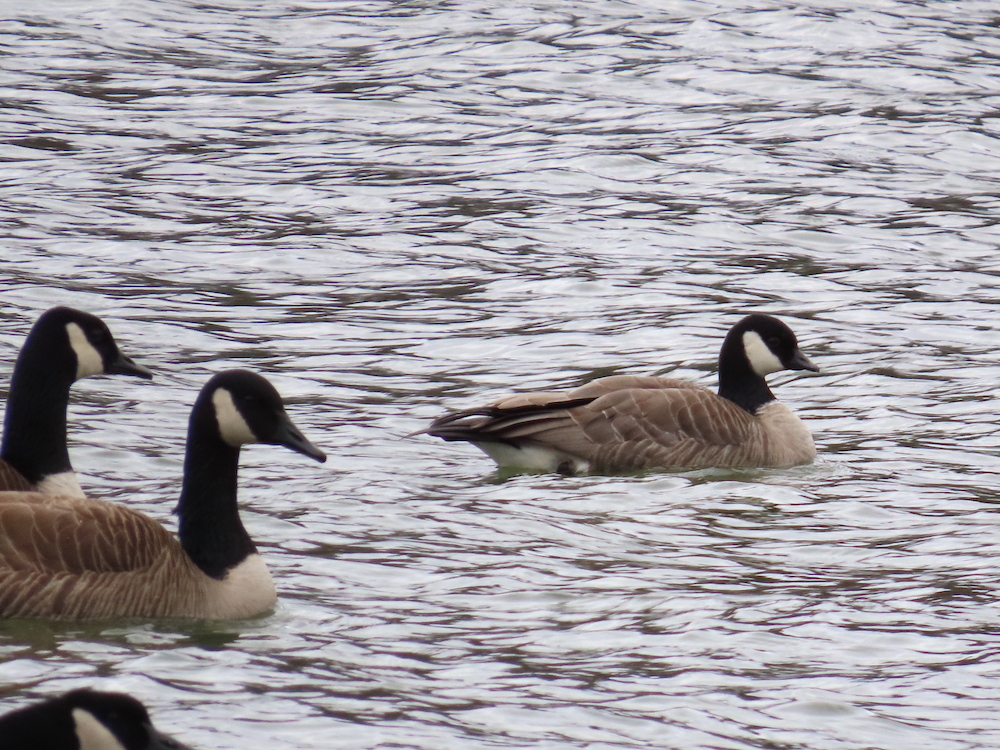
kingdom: Animalia
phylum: Chordata
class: Aves
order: Anseriformes
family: Anatidae
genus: Branta
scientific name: Branta hutchinsii
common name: Cackling goose
